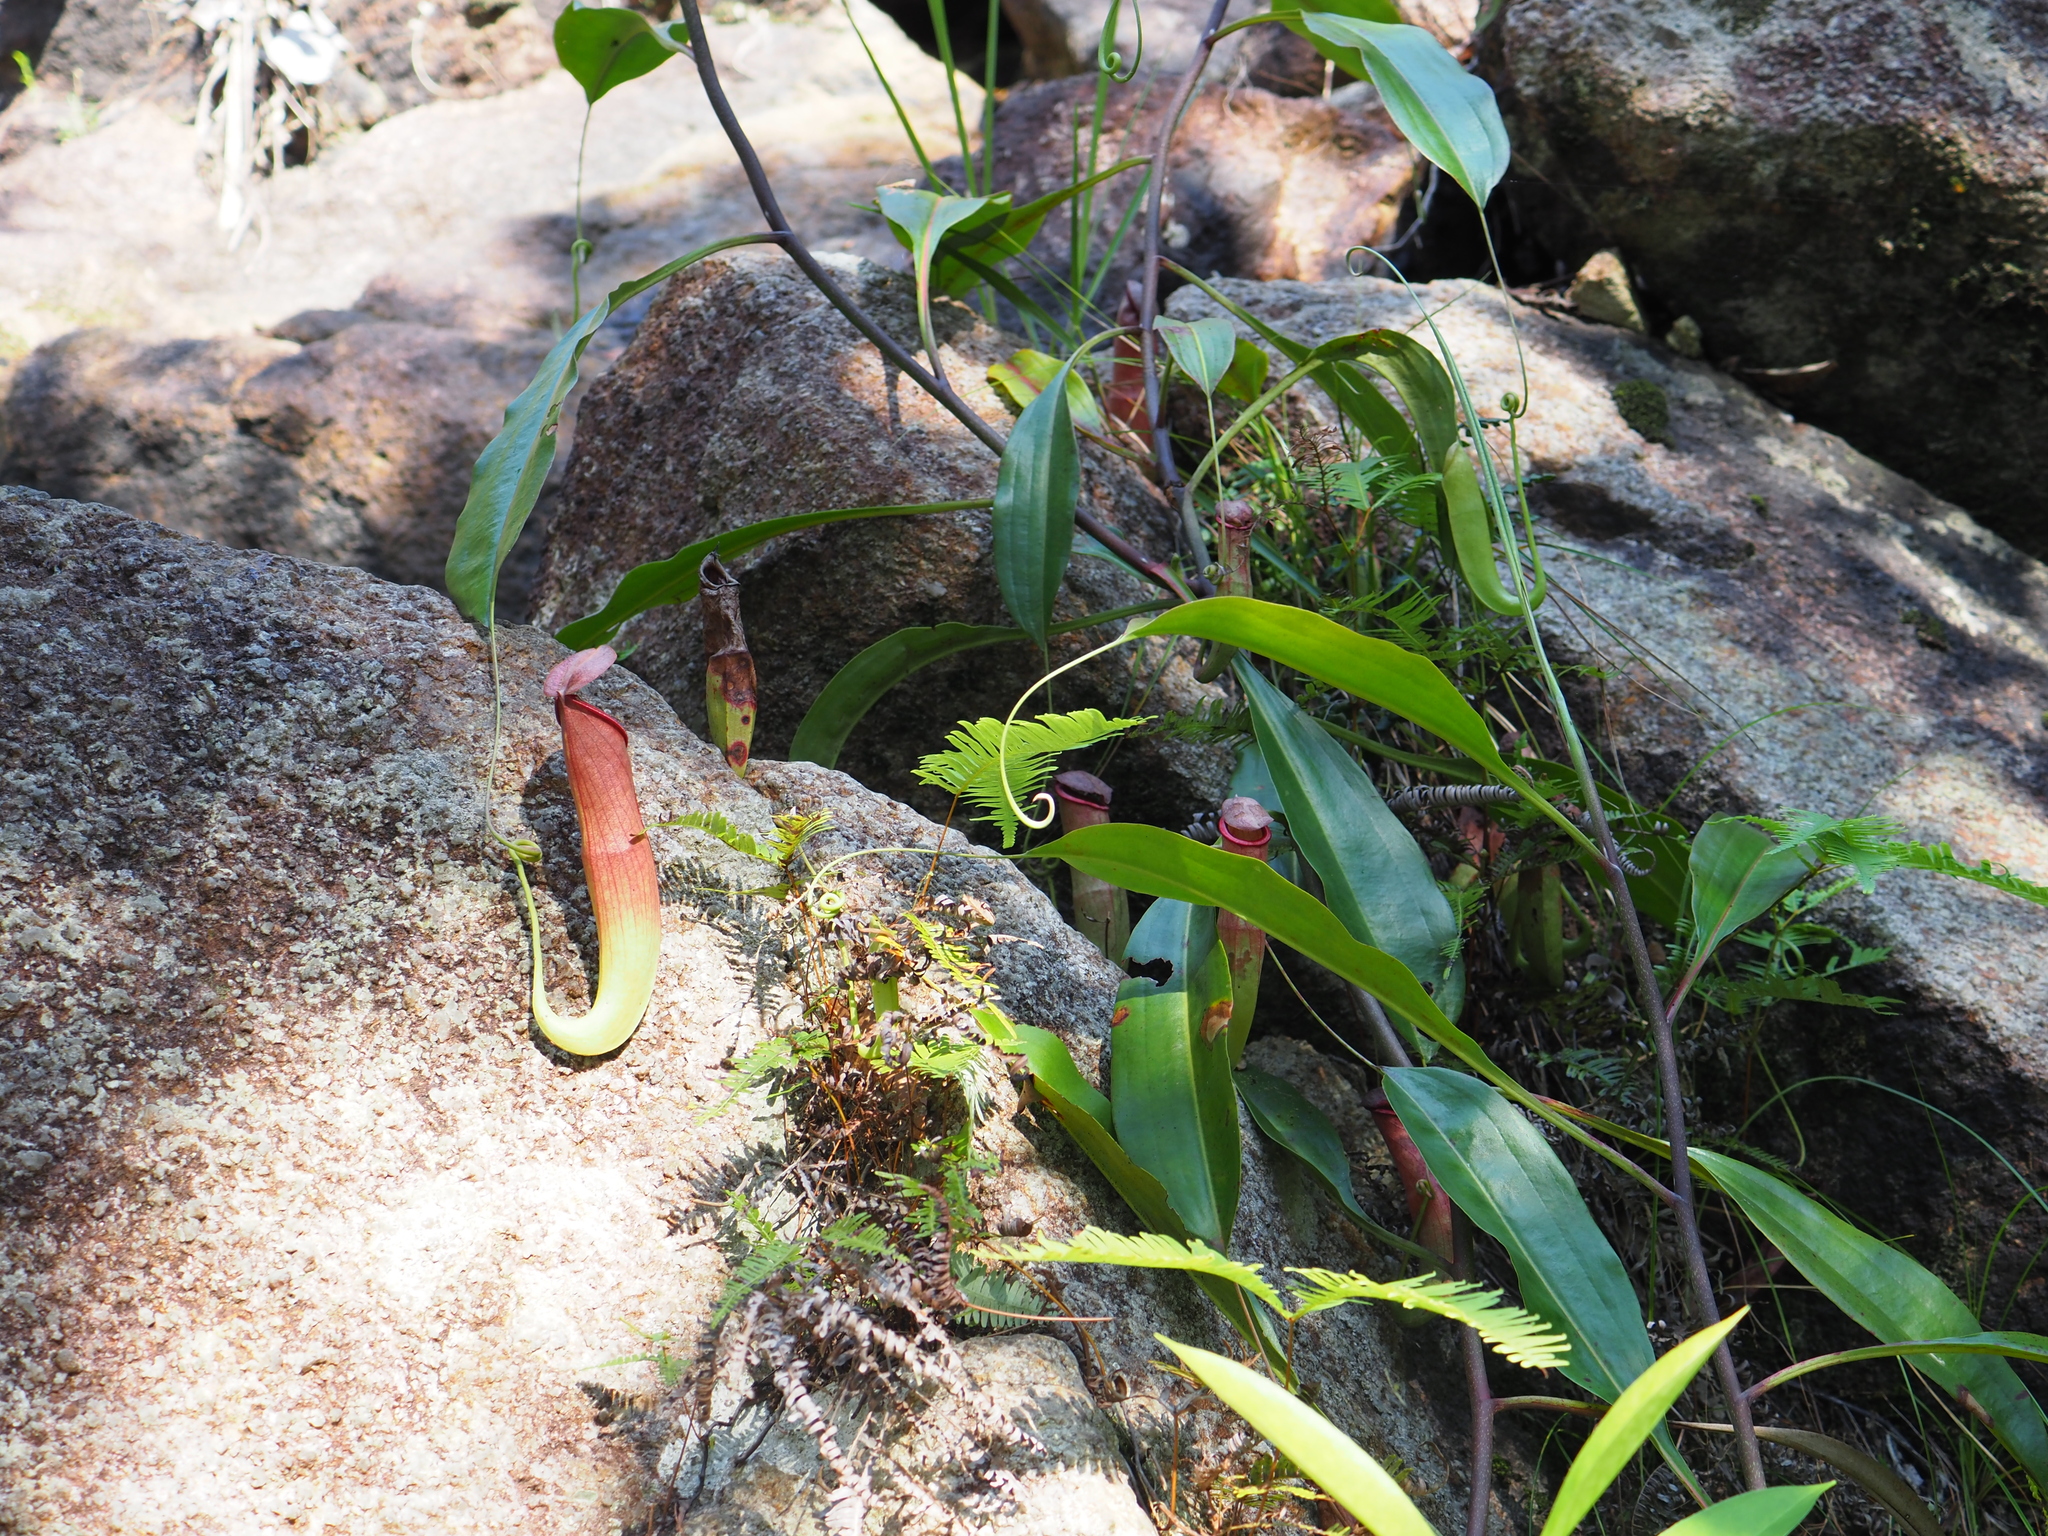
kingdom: Plantae
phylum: Tracheophyta
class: Magnoliopsida
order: Caryophyllales
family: Nepenthaceae
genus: Nepenthes
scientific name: Nepenthes mirabilis
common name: Tropical pitcherplant
